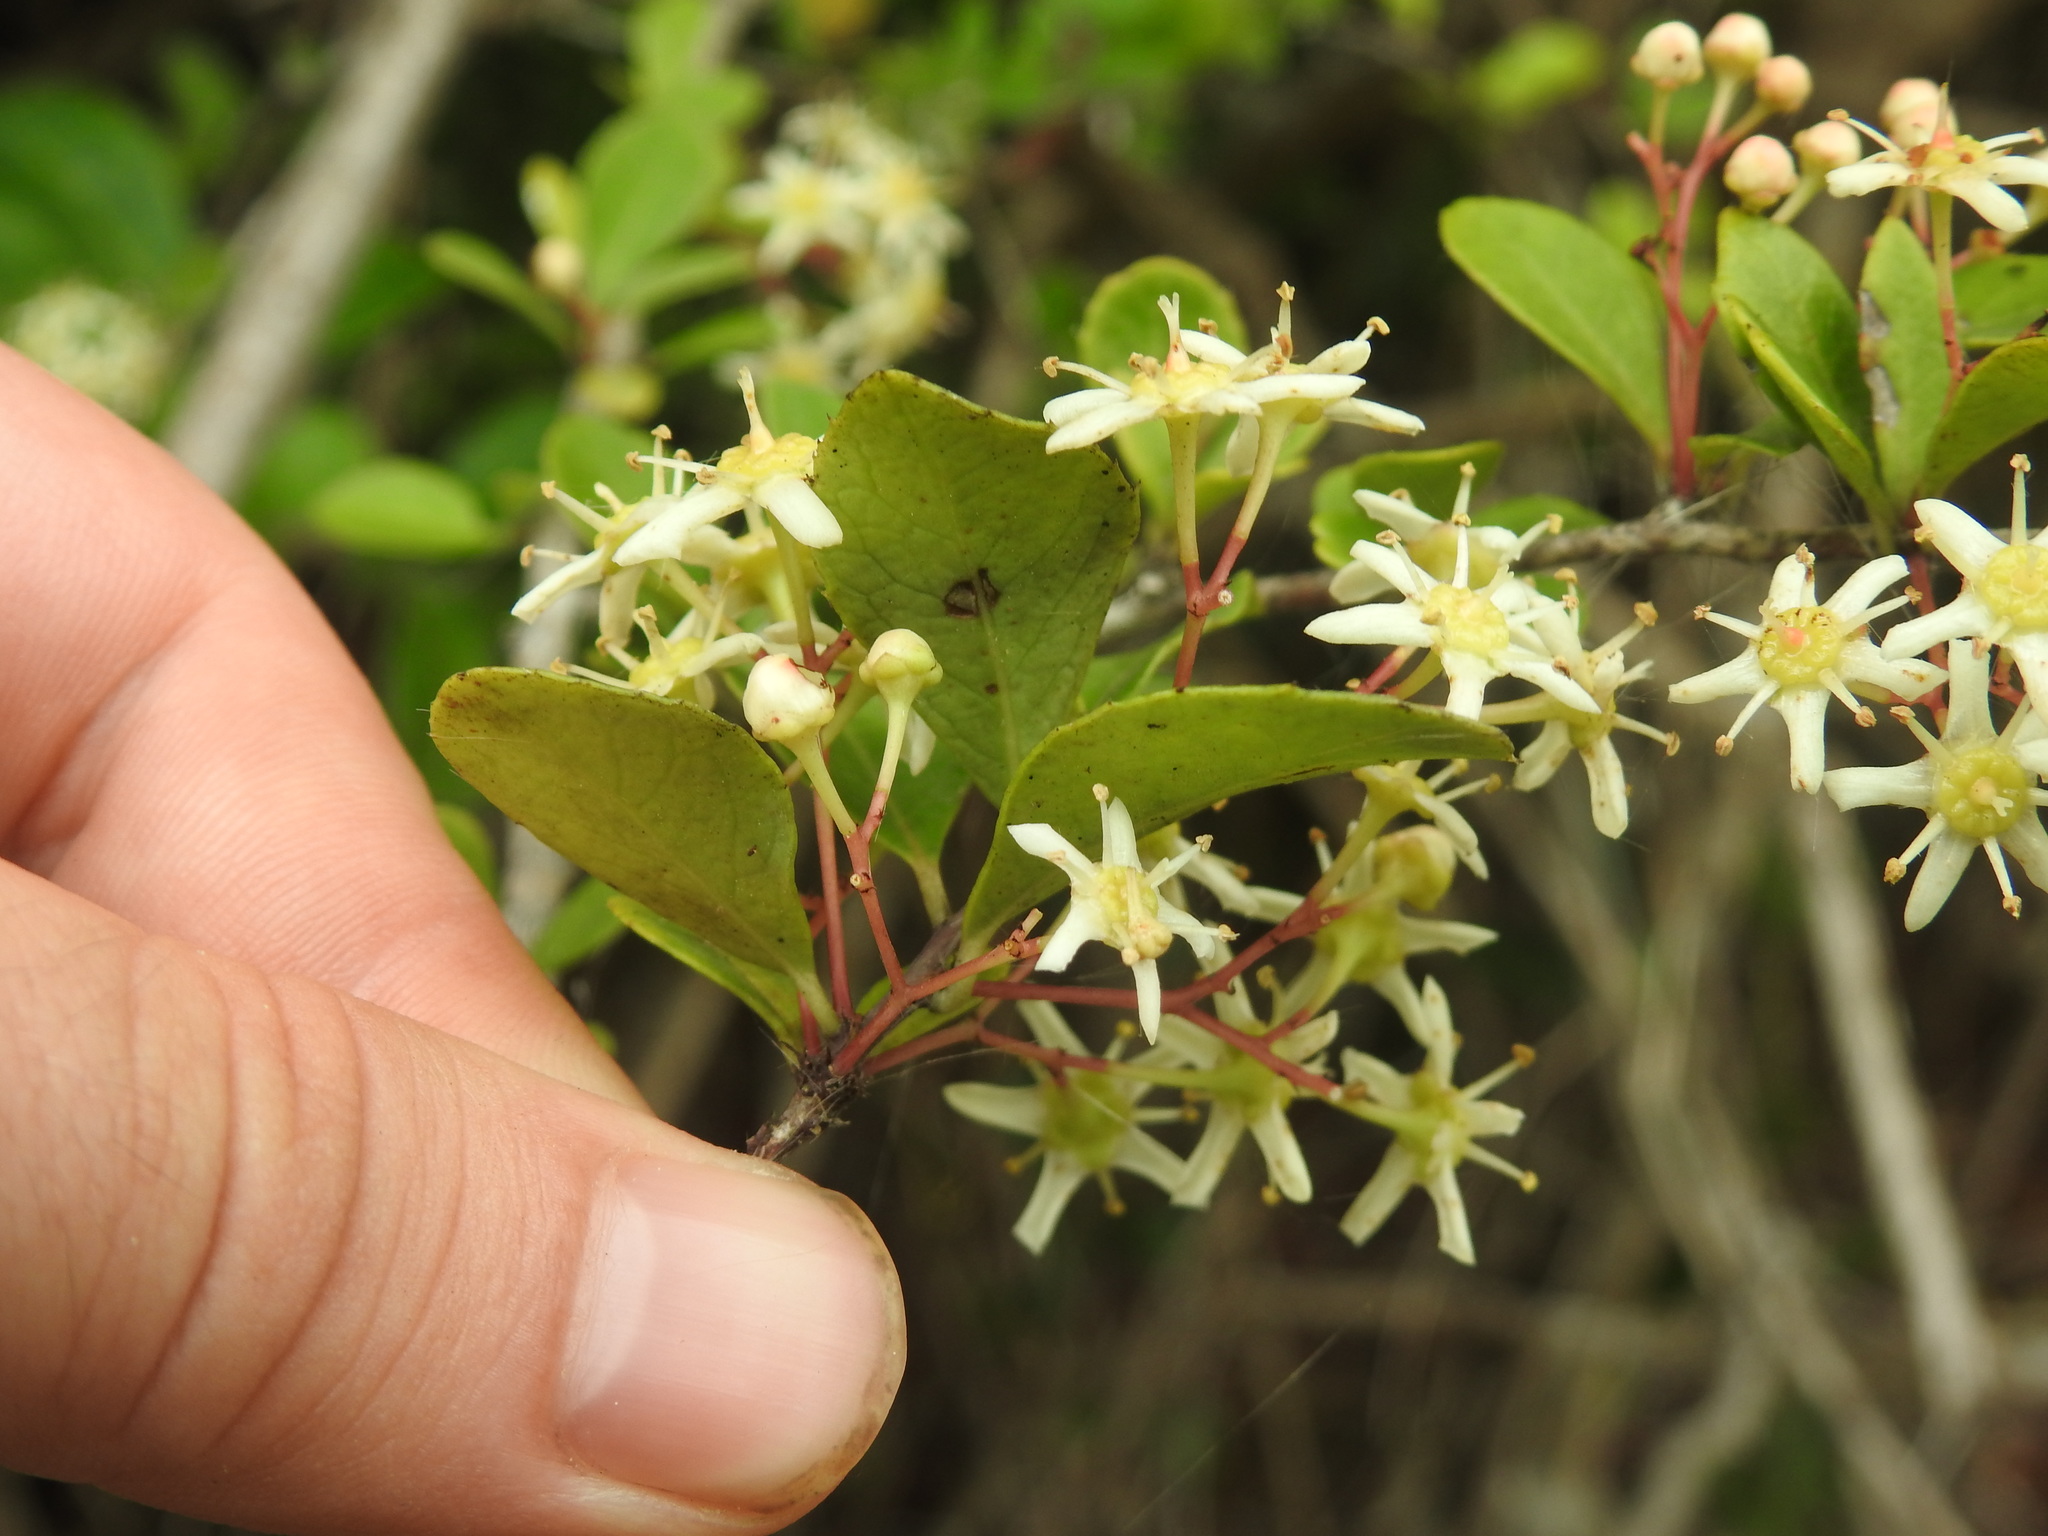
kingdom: Plantae
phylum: Tracheophyta
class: Magnoliopsida
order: Celastrales
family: Celastraceae
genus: Putterlickia
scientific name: Putterlickia pyracantha
